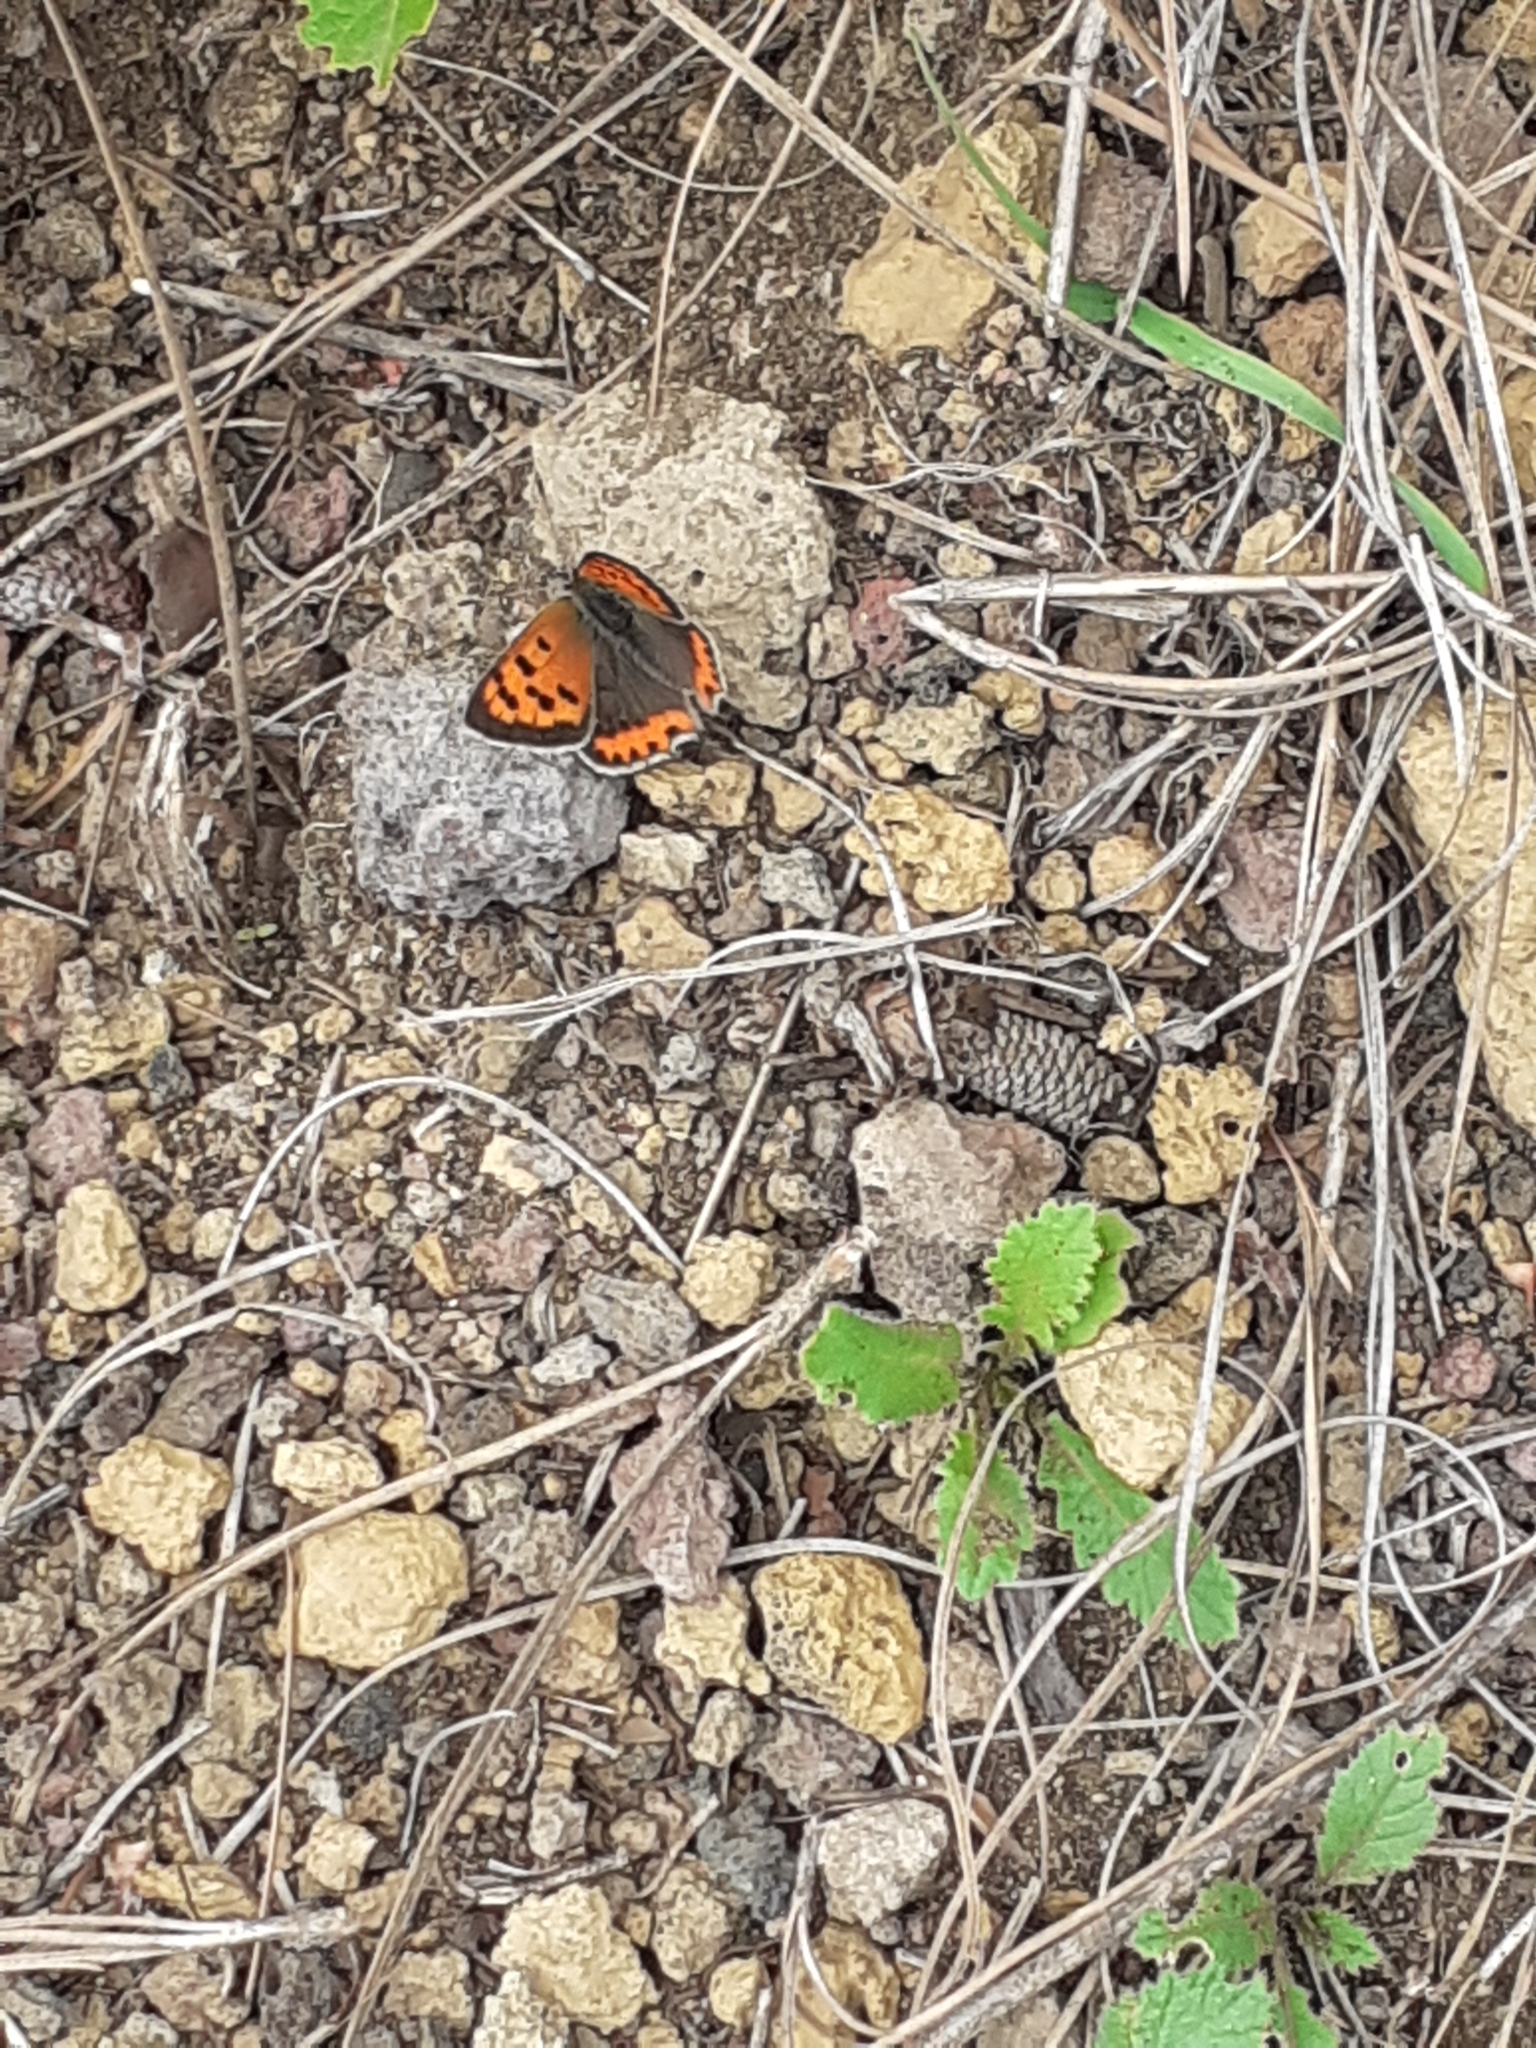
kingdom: Animalia
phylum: Arthropoda
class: Insecta
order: Lepidoptera
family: Lycaenidae
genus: Lycaena
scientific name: Lycaena phlaeas
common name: Small copper
